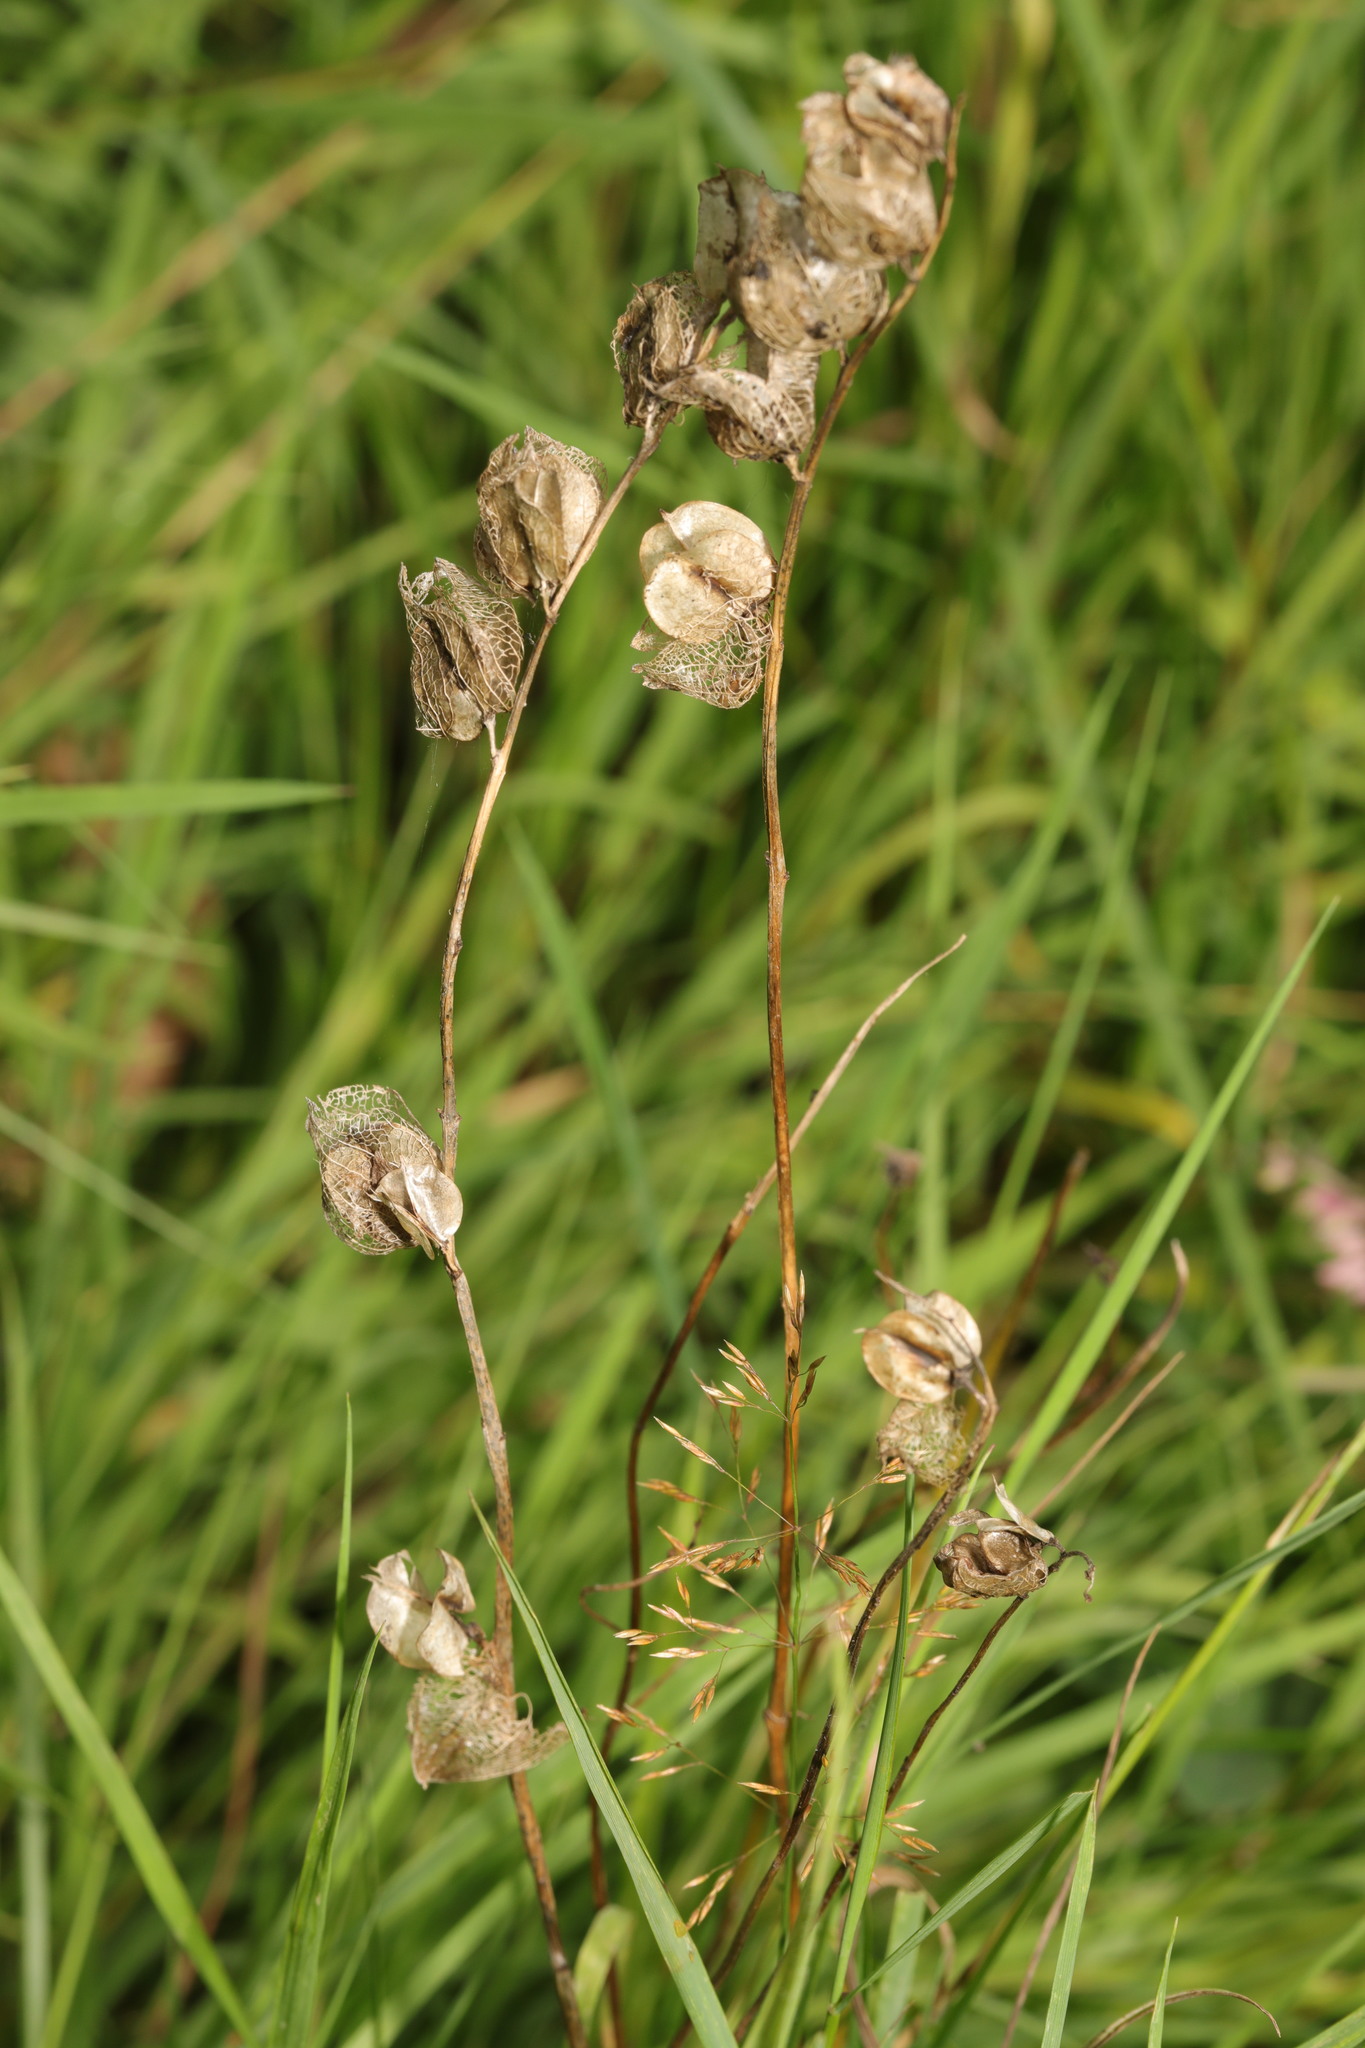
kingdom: Plantae
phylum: Tracheophyta
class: Magnoliopsida
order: Lamiales
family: Orobanchaceae
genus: Rhinanthus
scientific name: Rhinanthus minor
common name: Yellow-rattle
